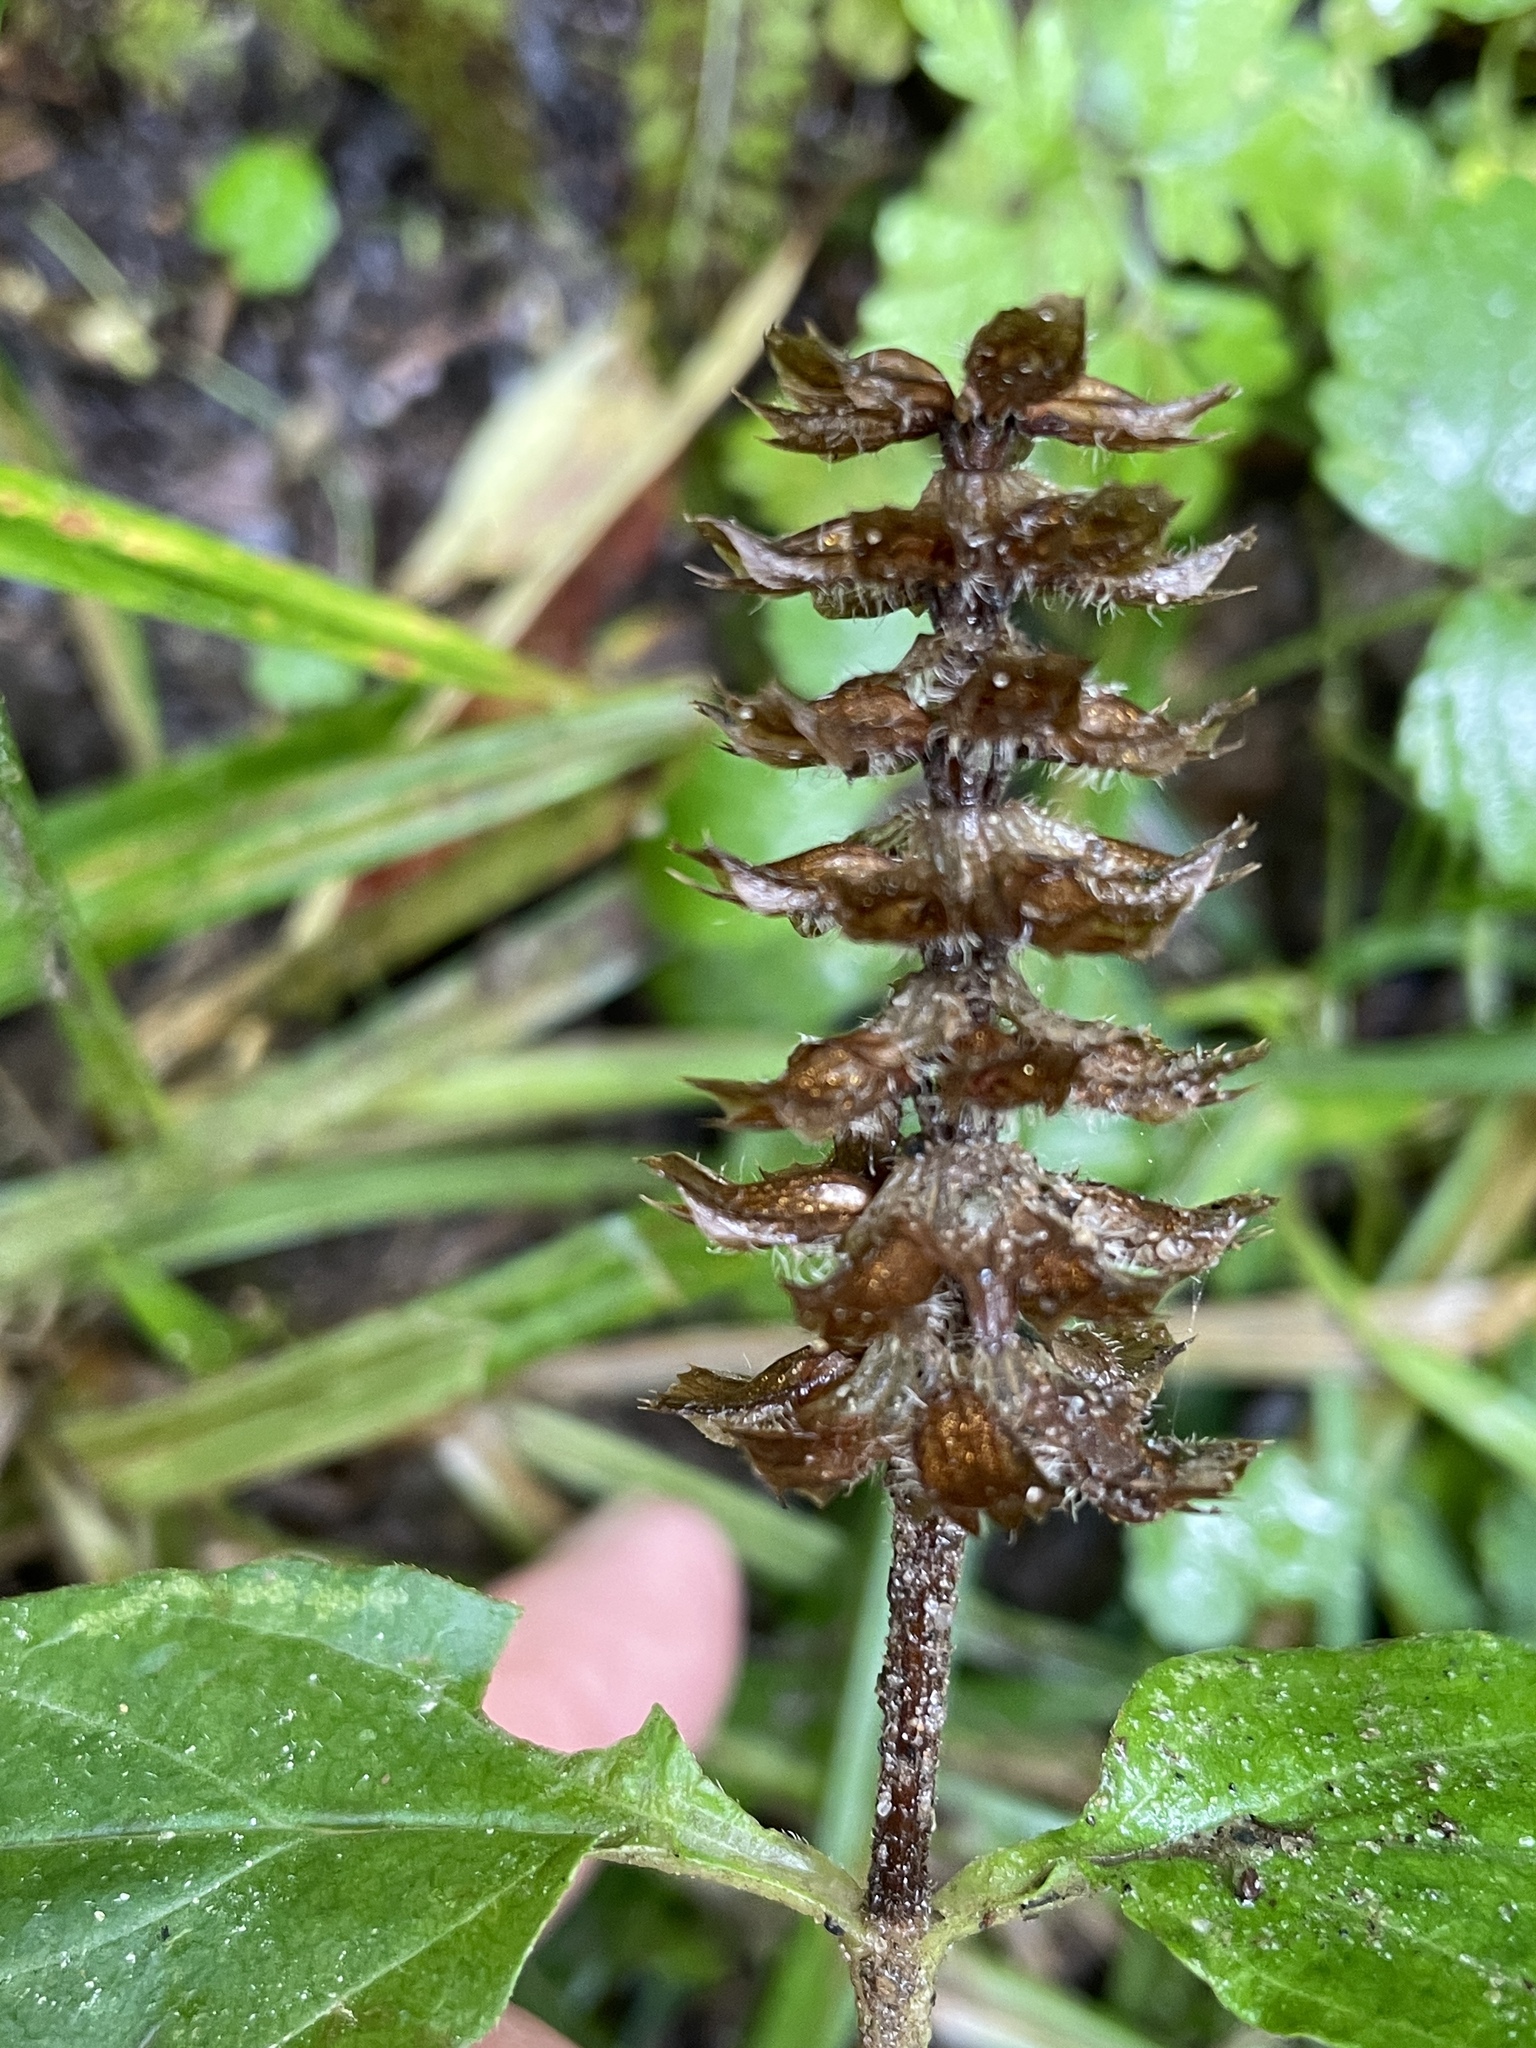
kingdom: Plantae
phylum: Tracheophyta
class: Magnoliopsida
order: Lamiales
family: Lamiaceae
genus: Prunella
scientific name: Prunella vulgaris
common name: Heal-all
